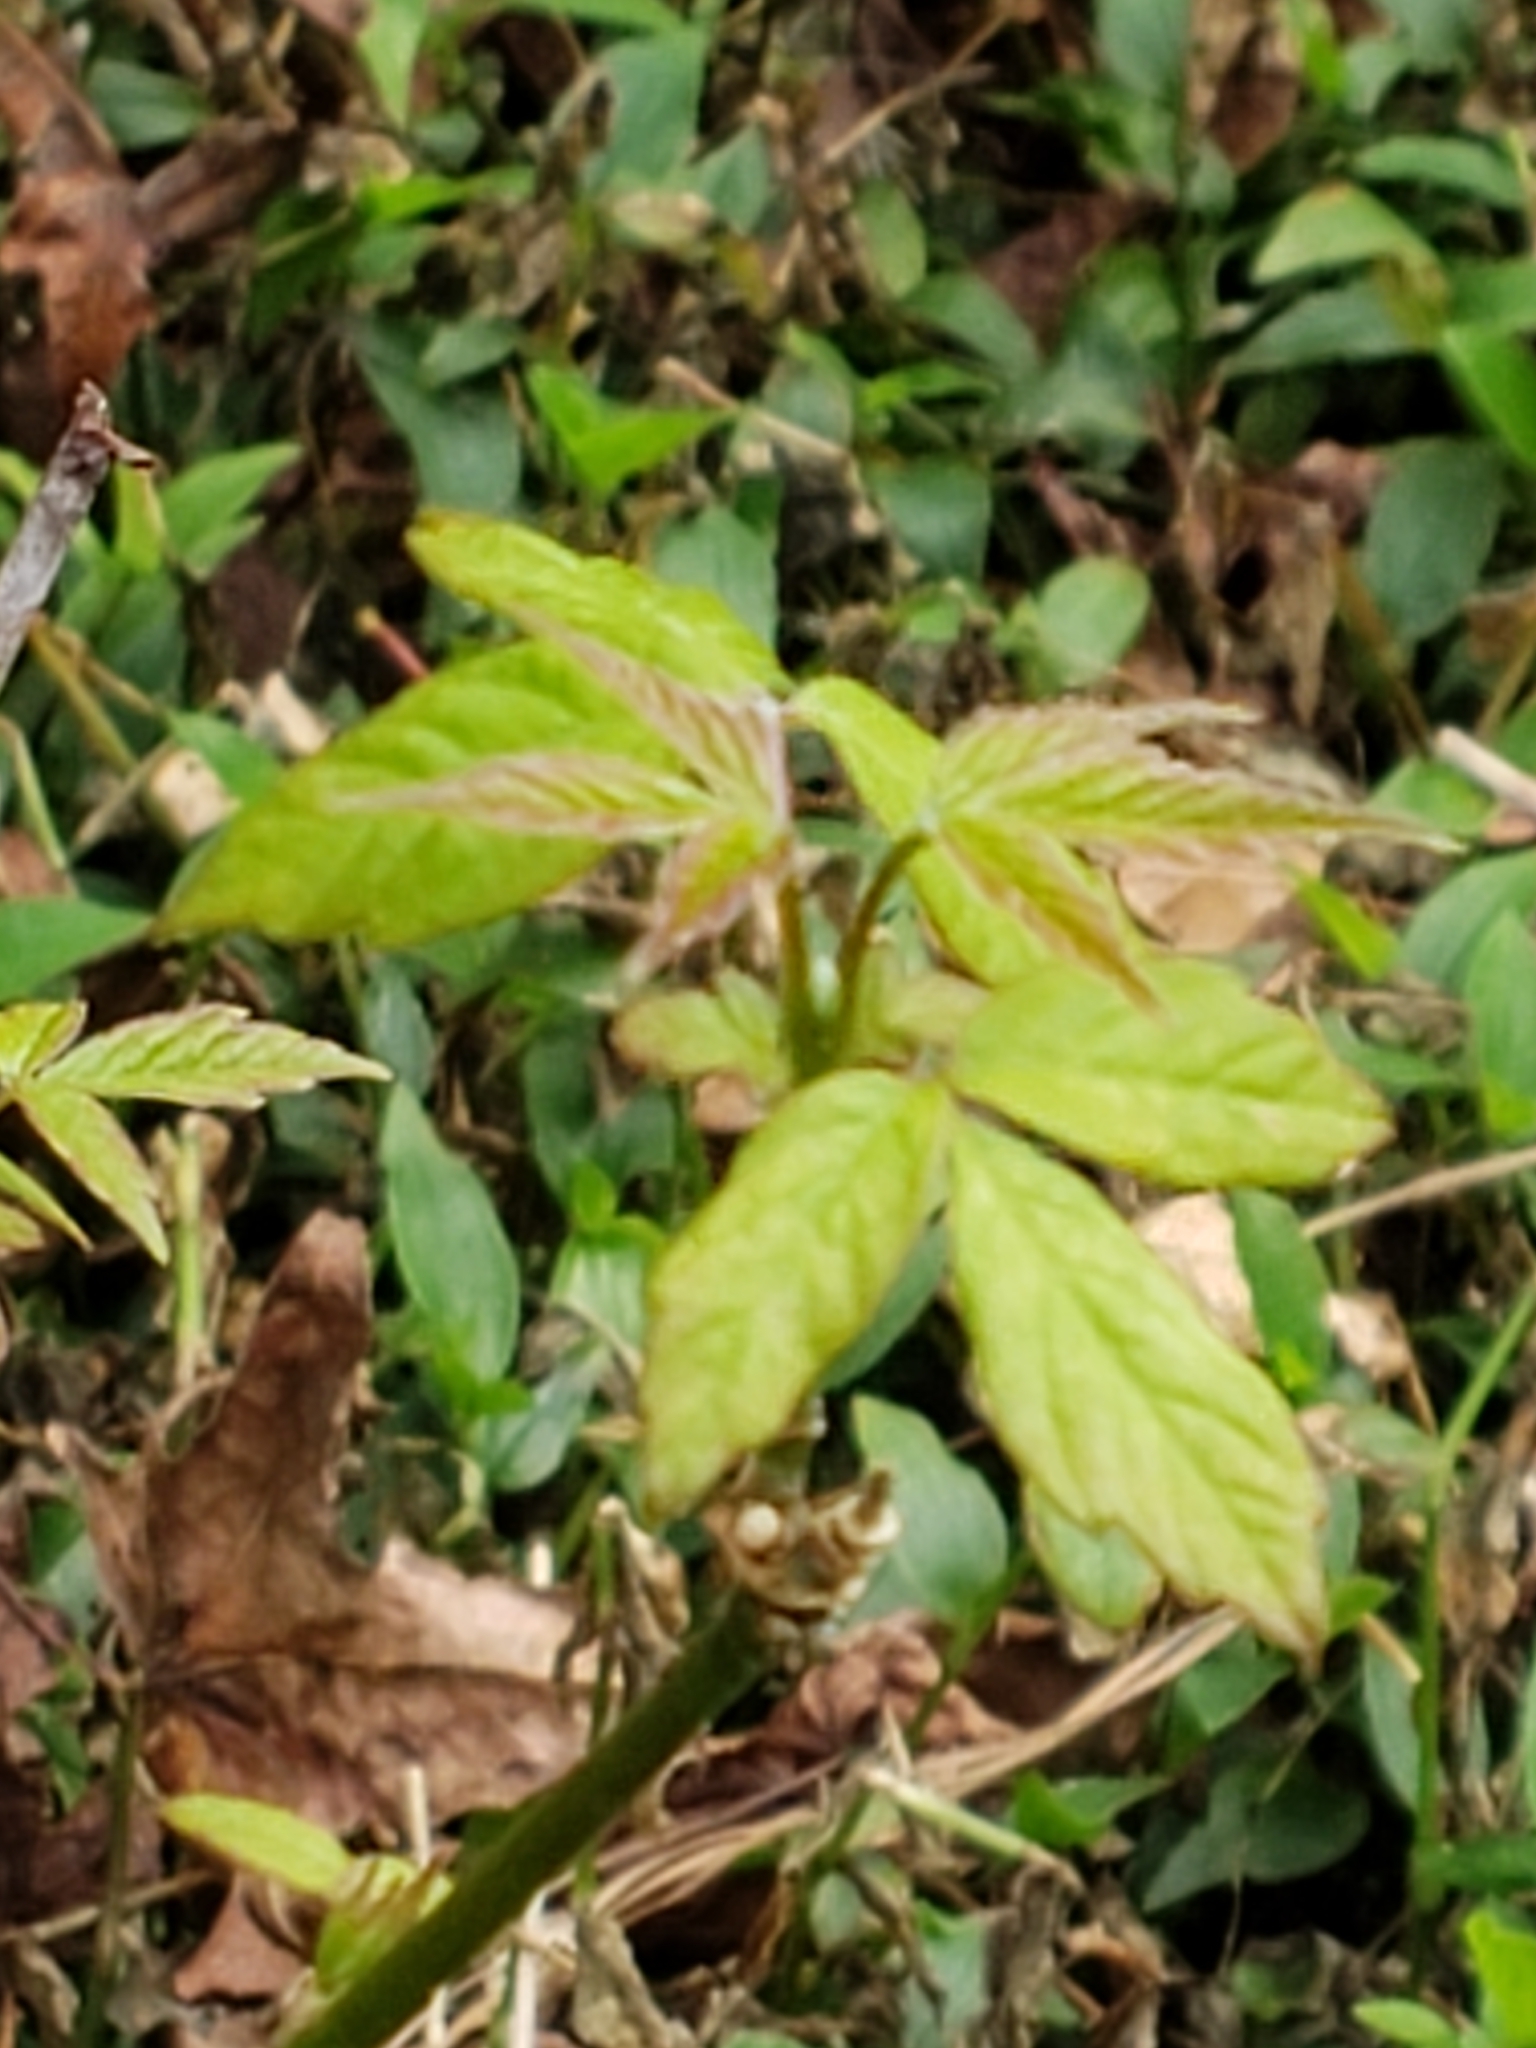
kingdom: Plantae
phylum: Tracheophyta
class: Magnoliopsida
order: Sapindales
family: Sapindaceae
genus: Acer
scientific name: Acer negundo
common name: Ashleaf maple
